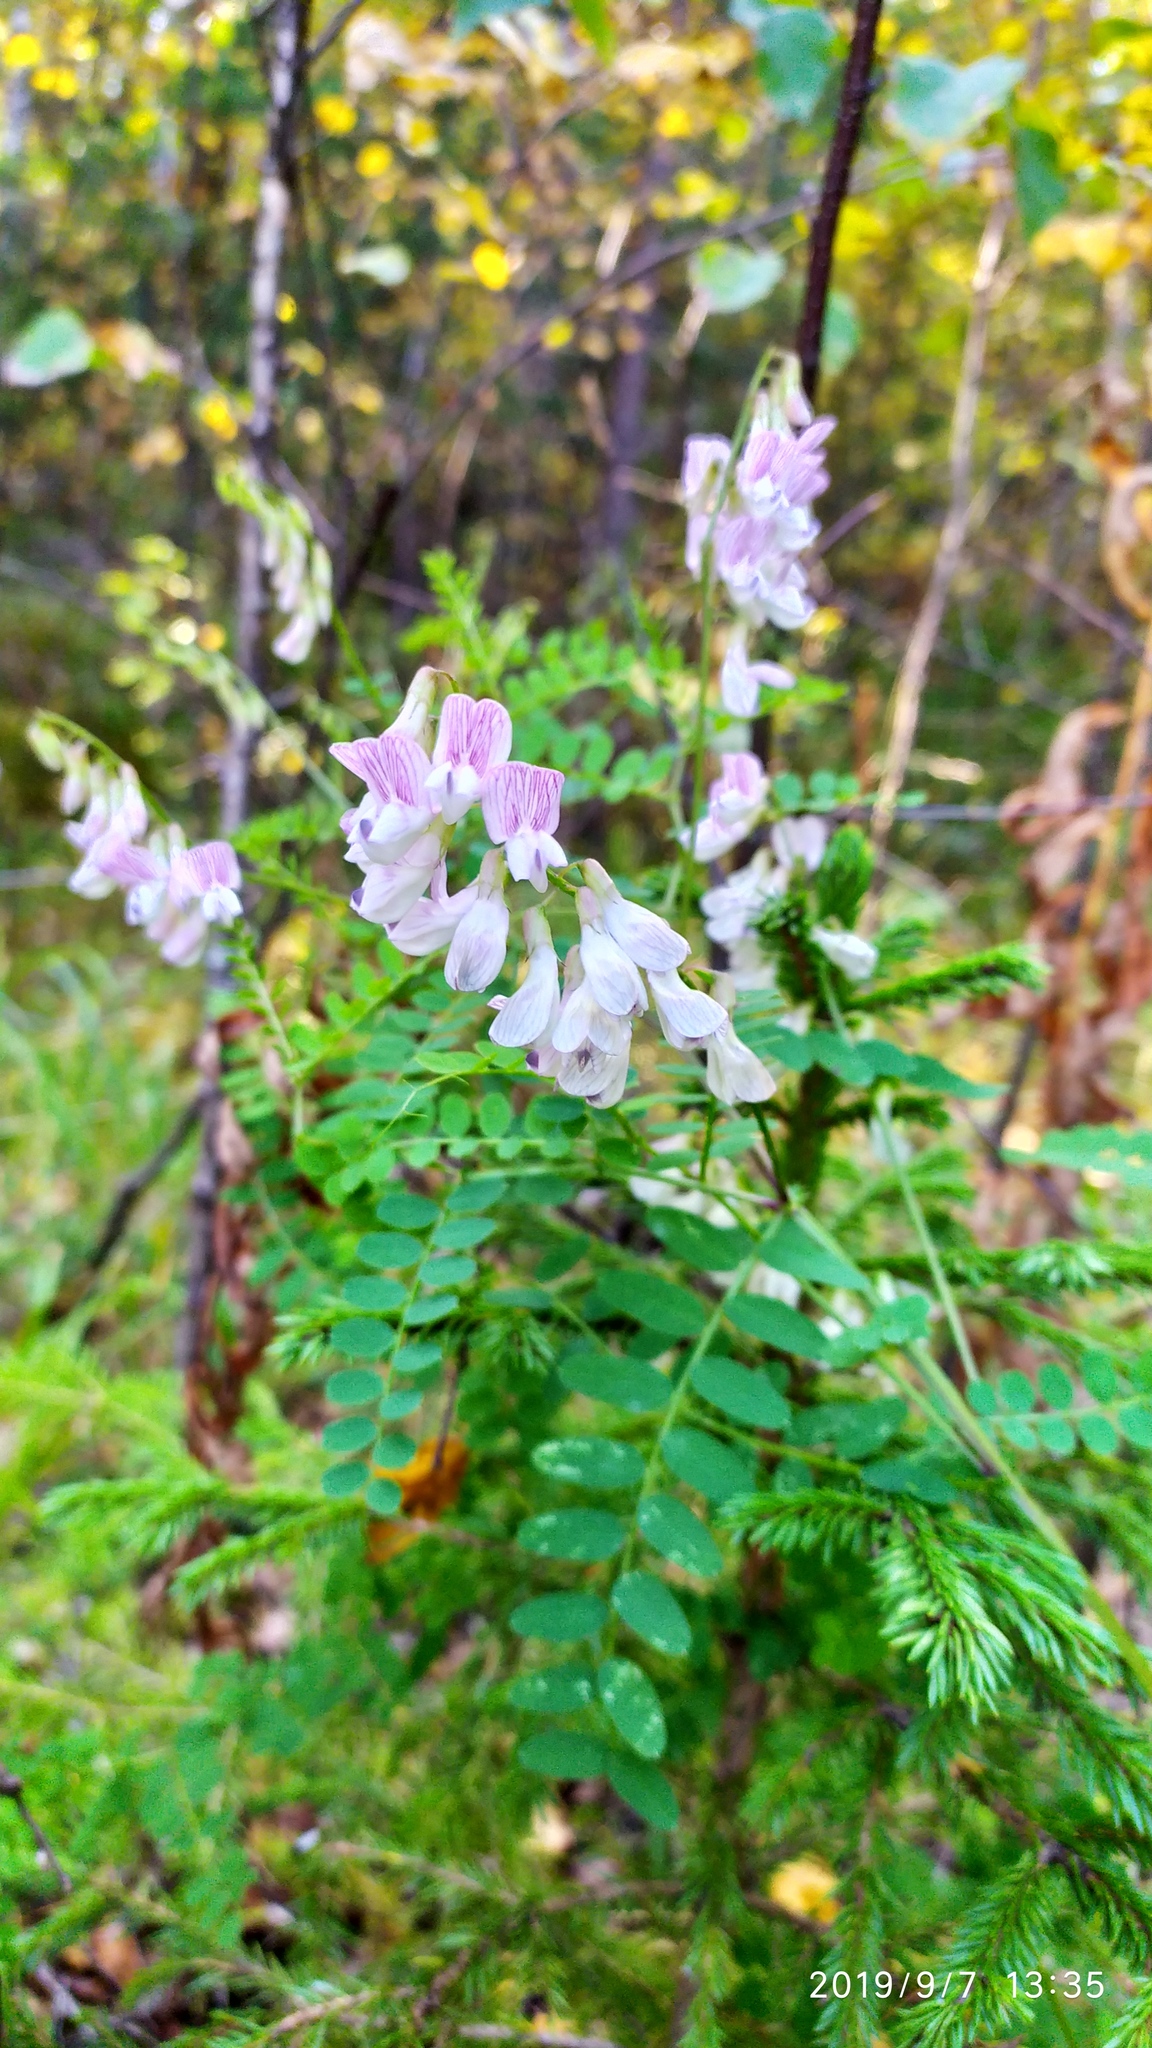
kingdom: Plantae
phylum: Tracheophyta
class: Magnoliopsida
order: Fabales
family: Fabaceae
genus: Vicia
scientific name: Vicia sylvatica
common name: Wood vetch
